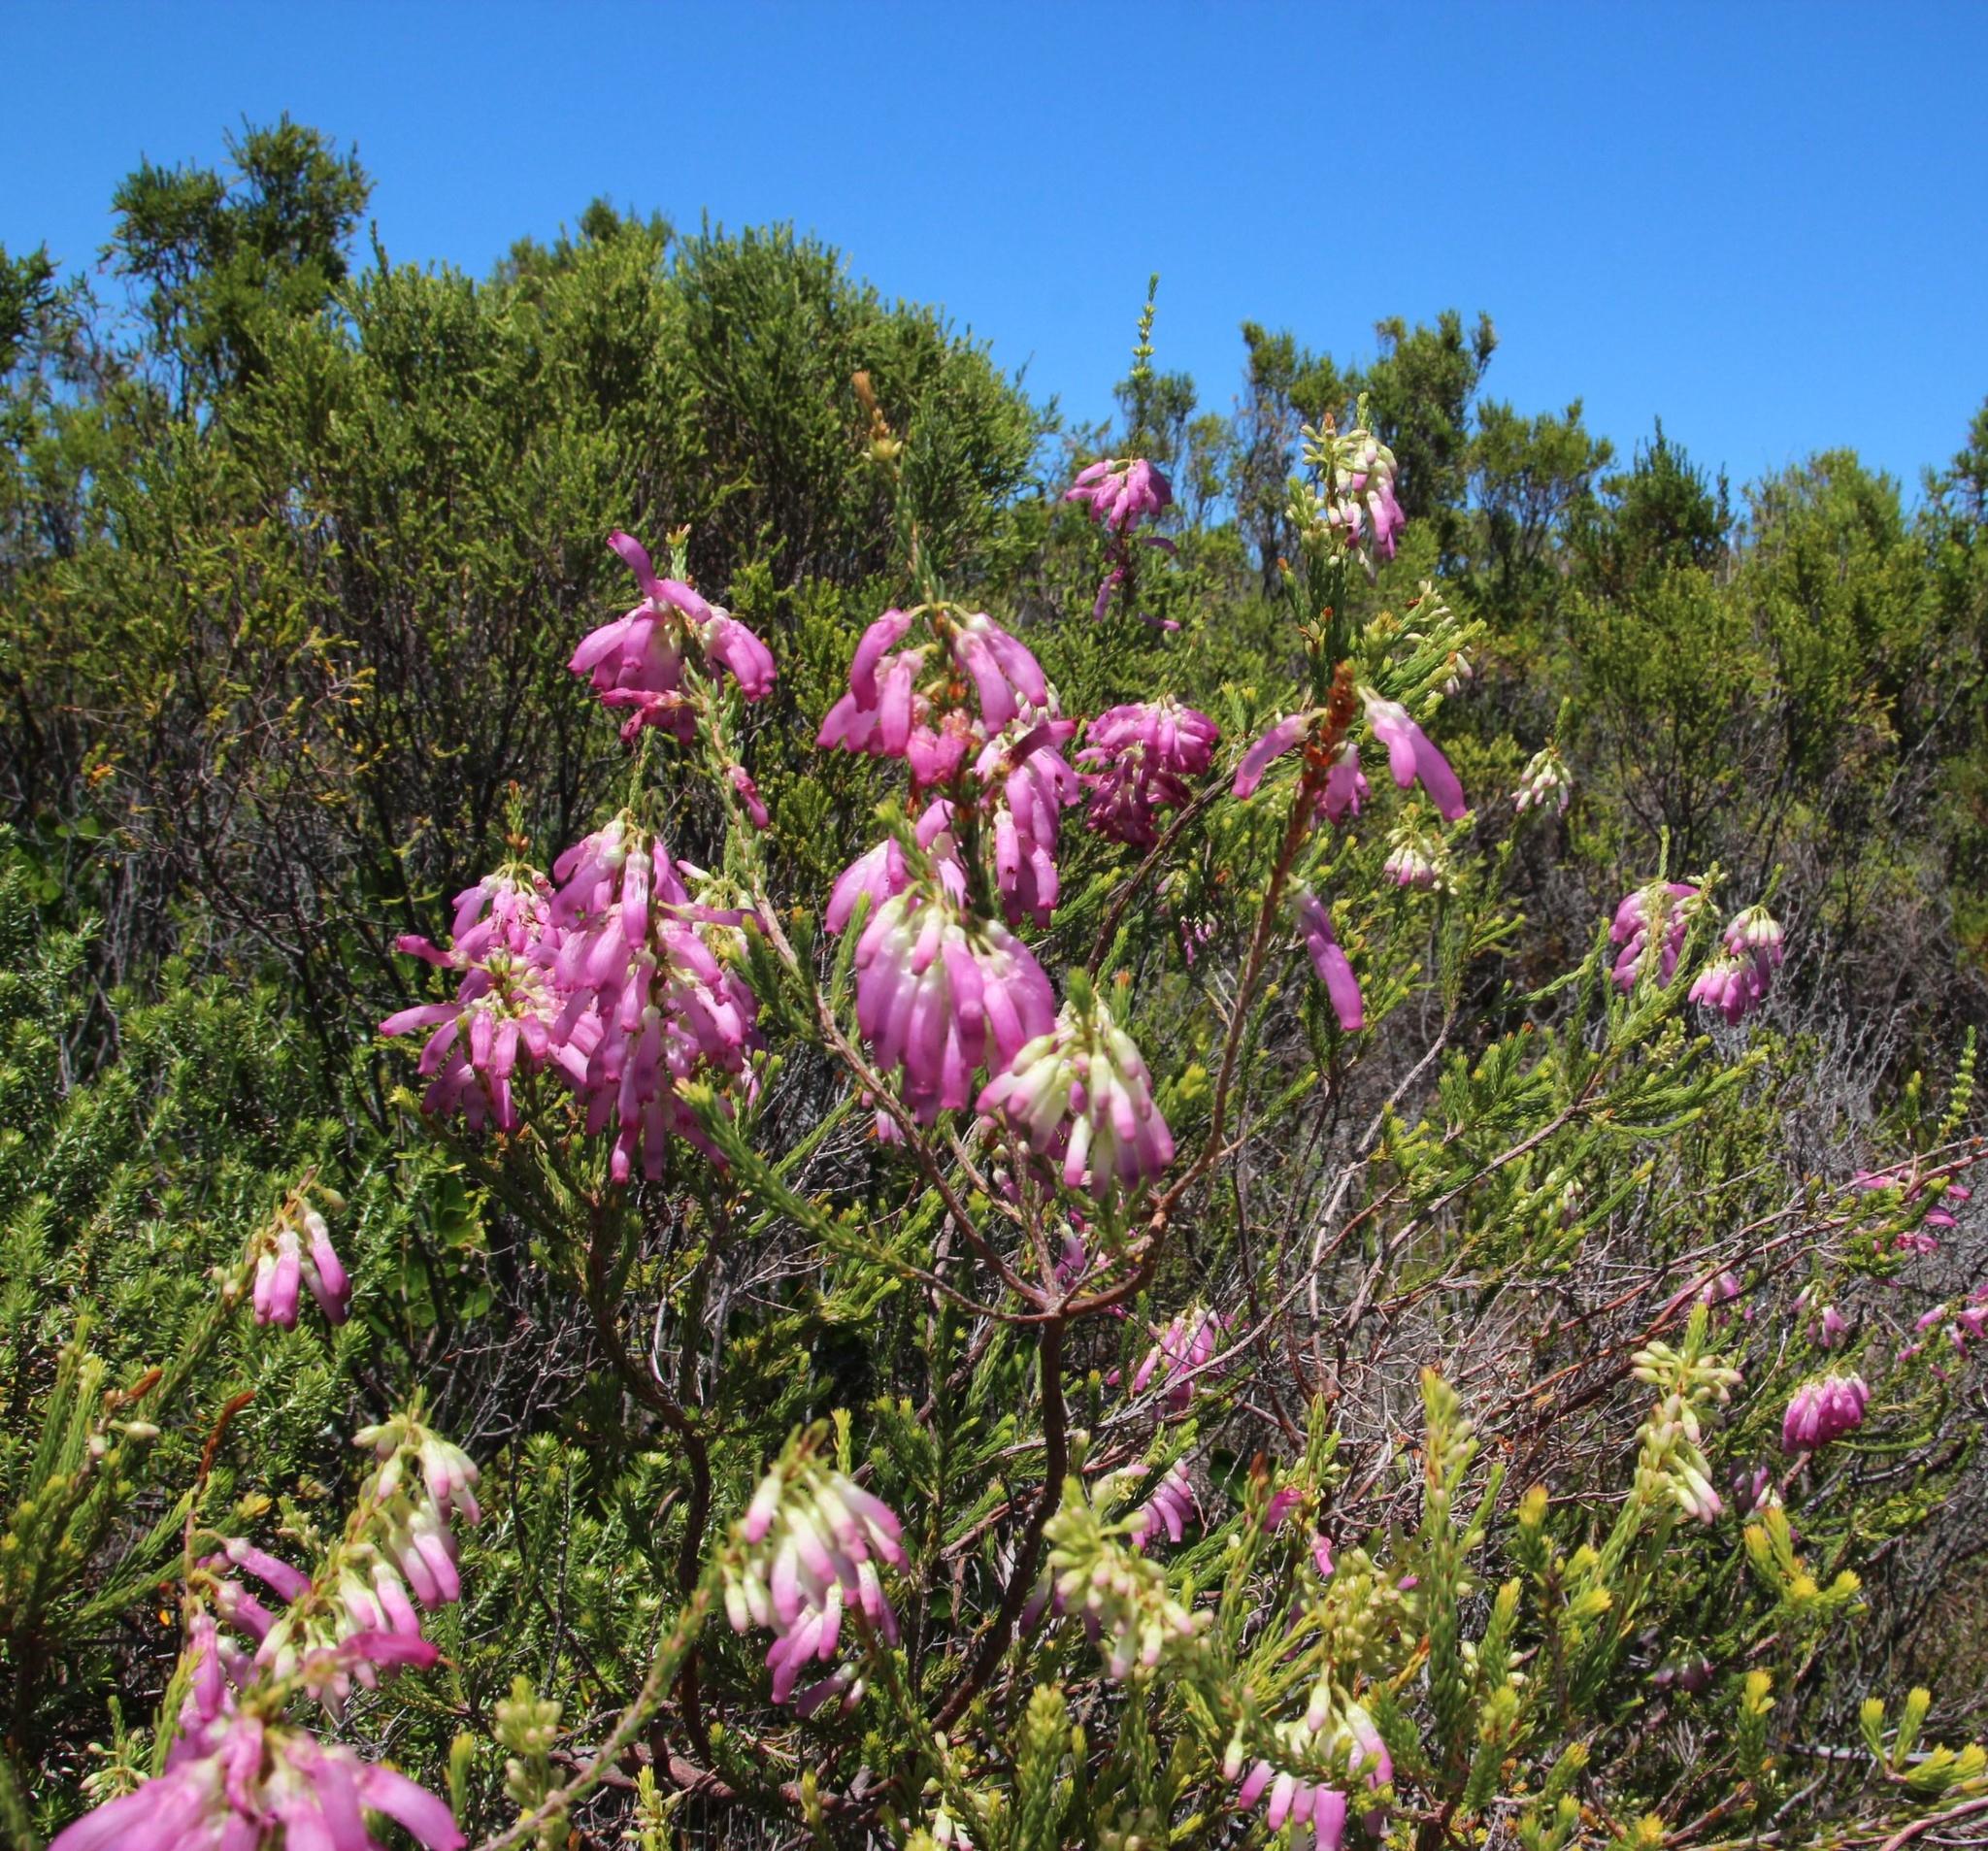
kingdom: Plantae
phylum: Tracheophyta
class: Magnoliopsida
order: Ericales
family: Ericaceae
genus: Erica
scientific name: Erica mammosa
